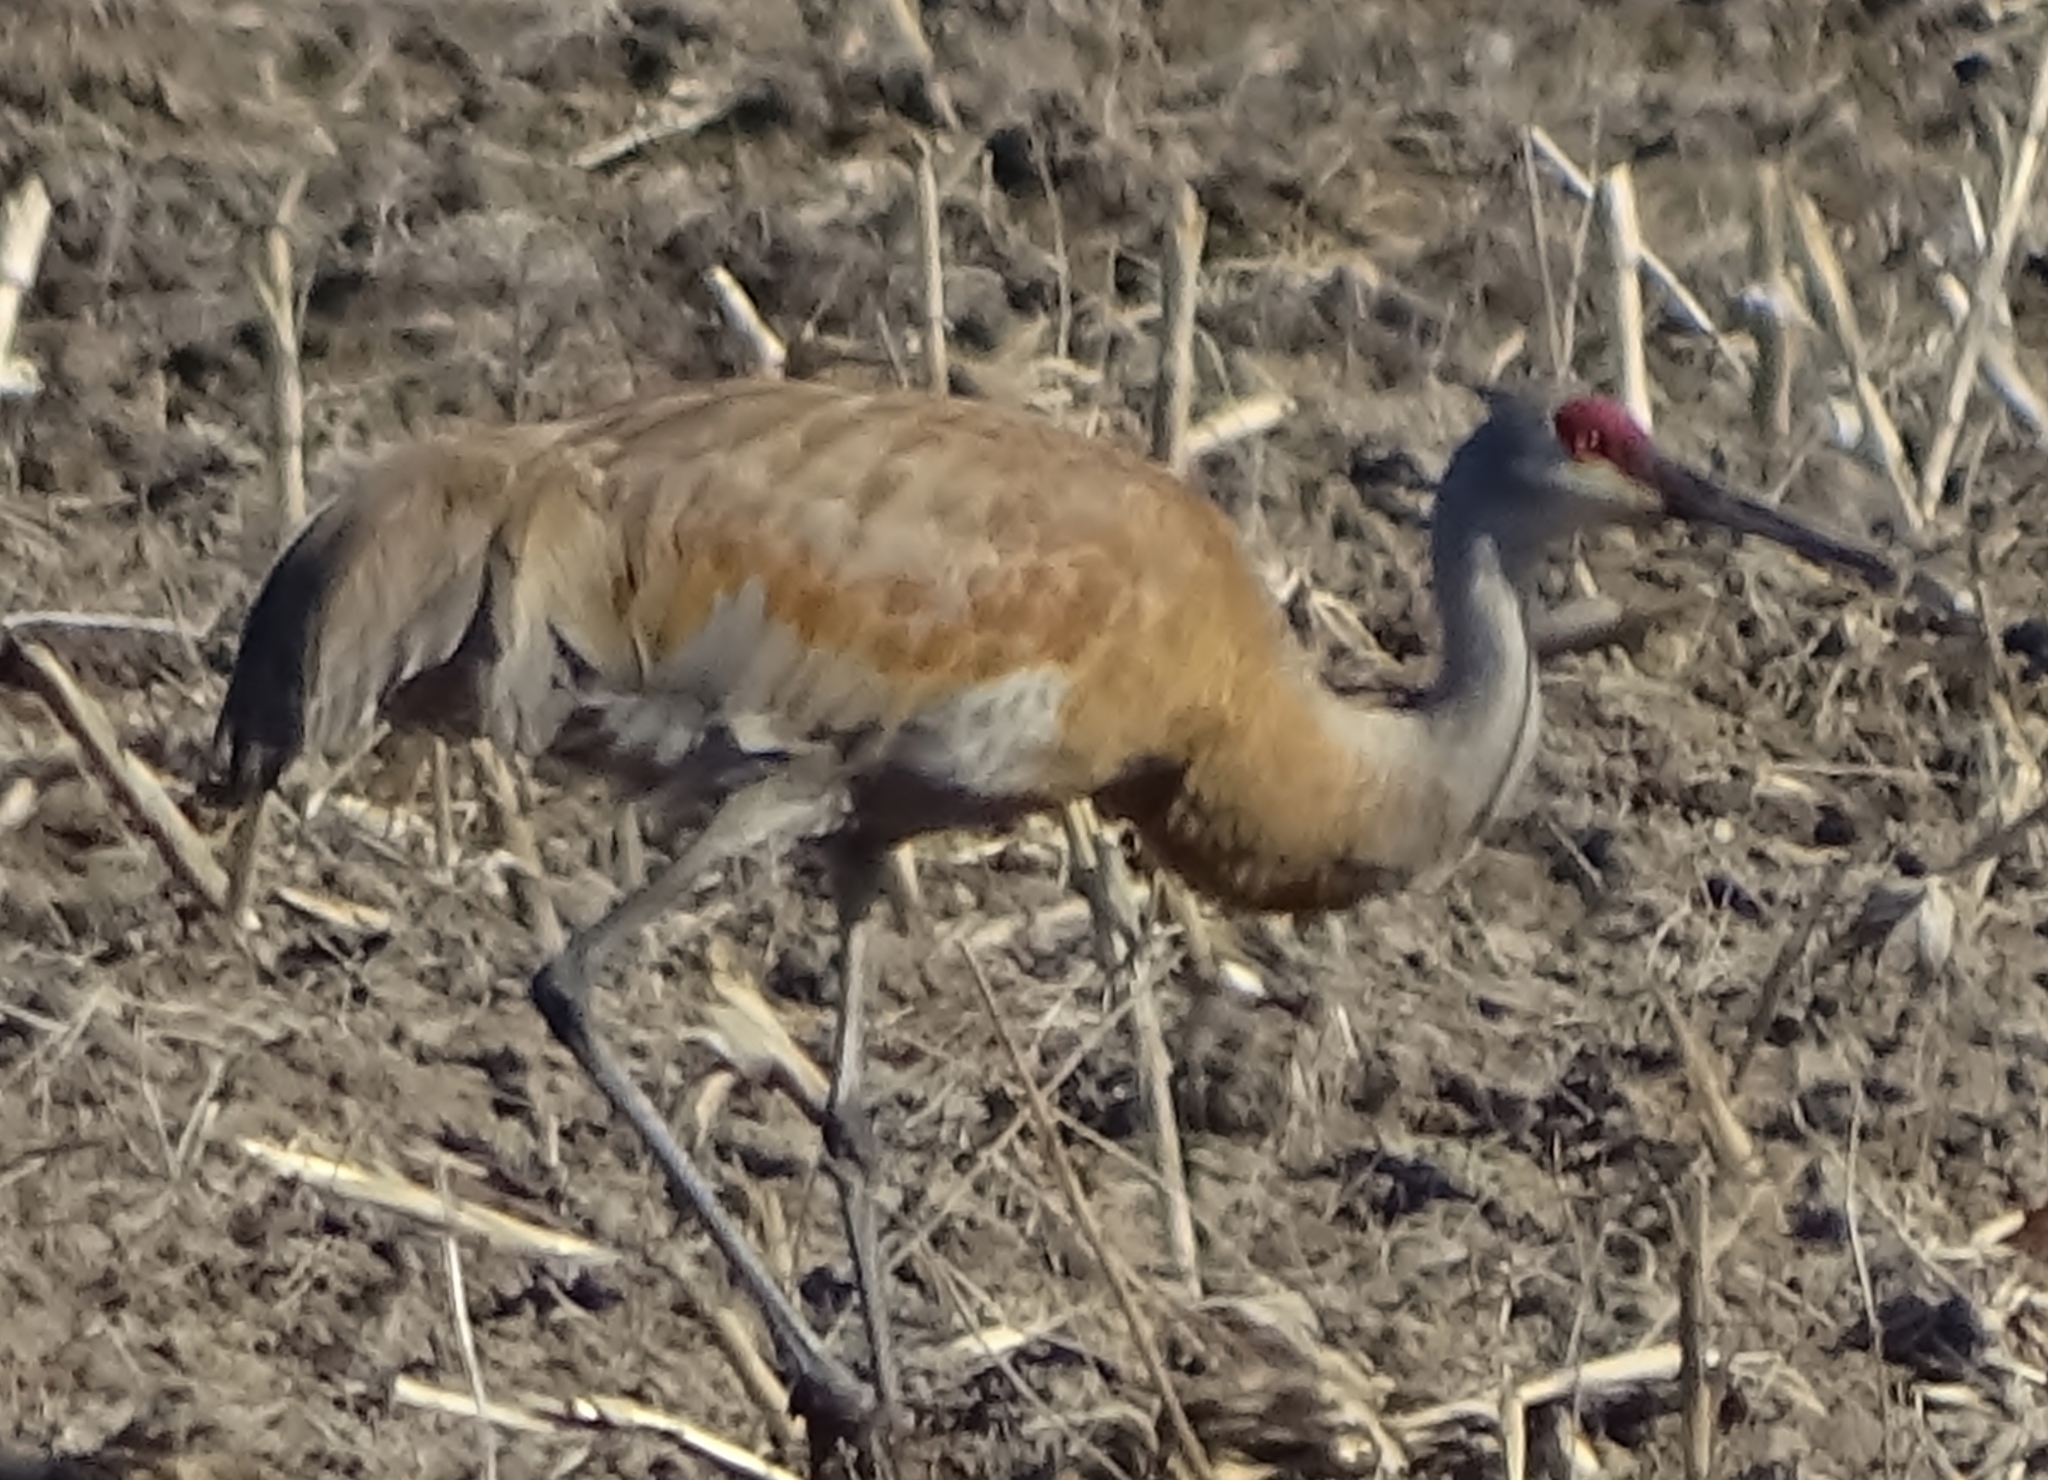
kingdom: Animalia
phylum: Chordata
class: Aves
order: Gruiformes
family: Gruidae
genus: Grus
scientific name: Grus canadensis
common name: Sandhill crane
